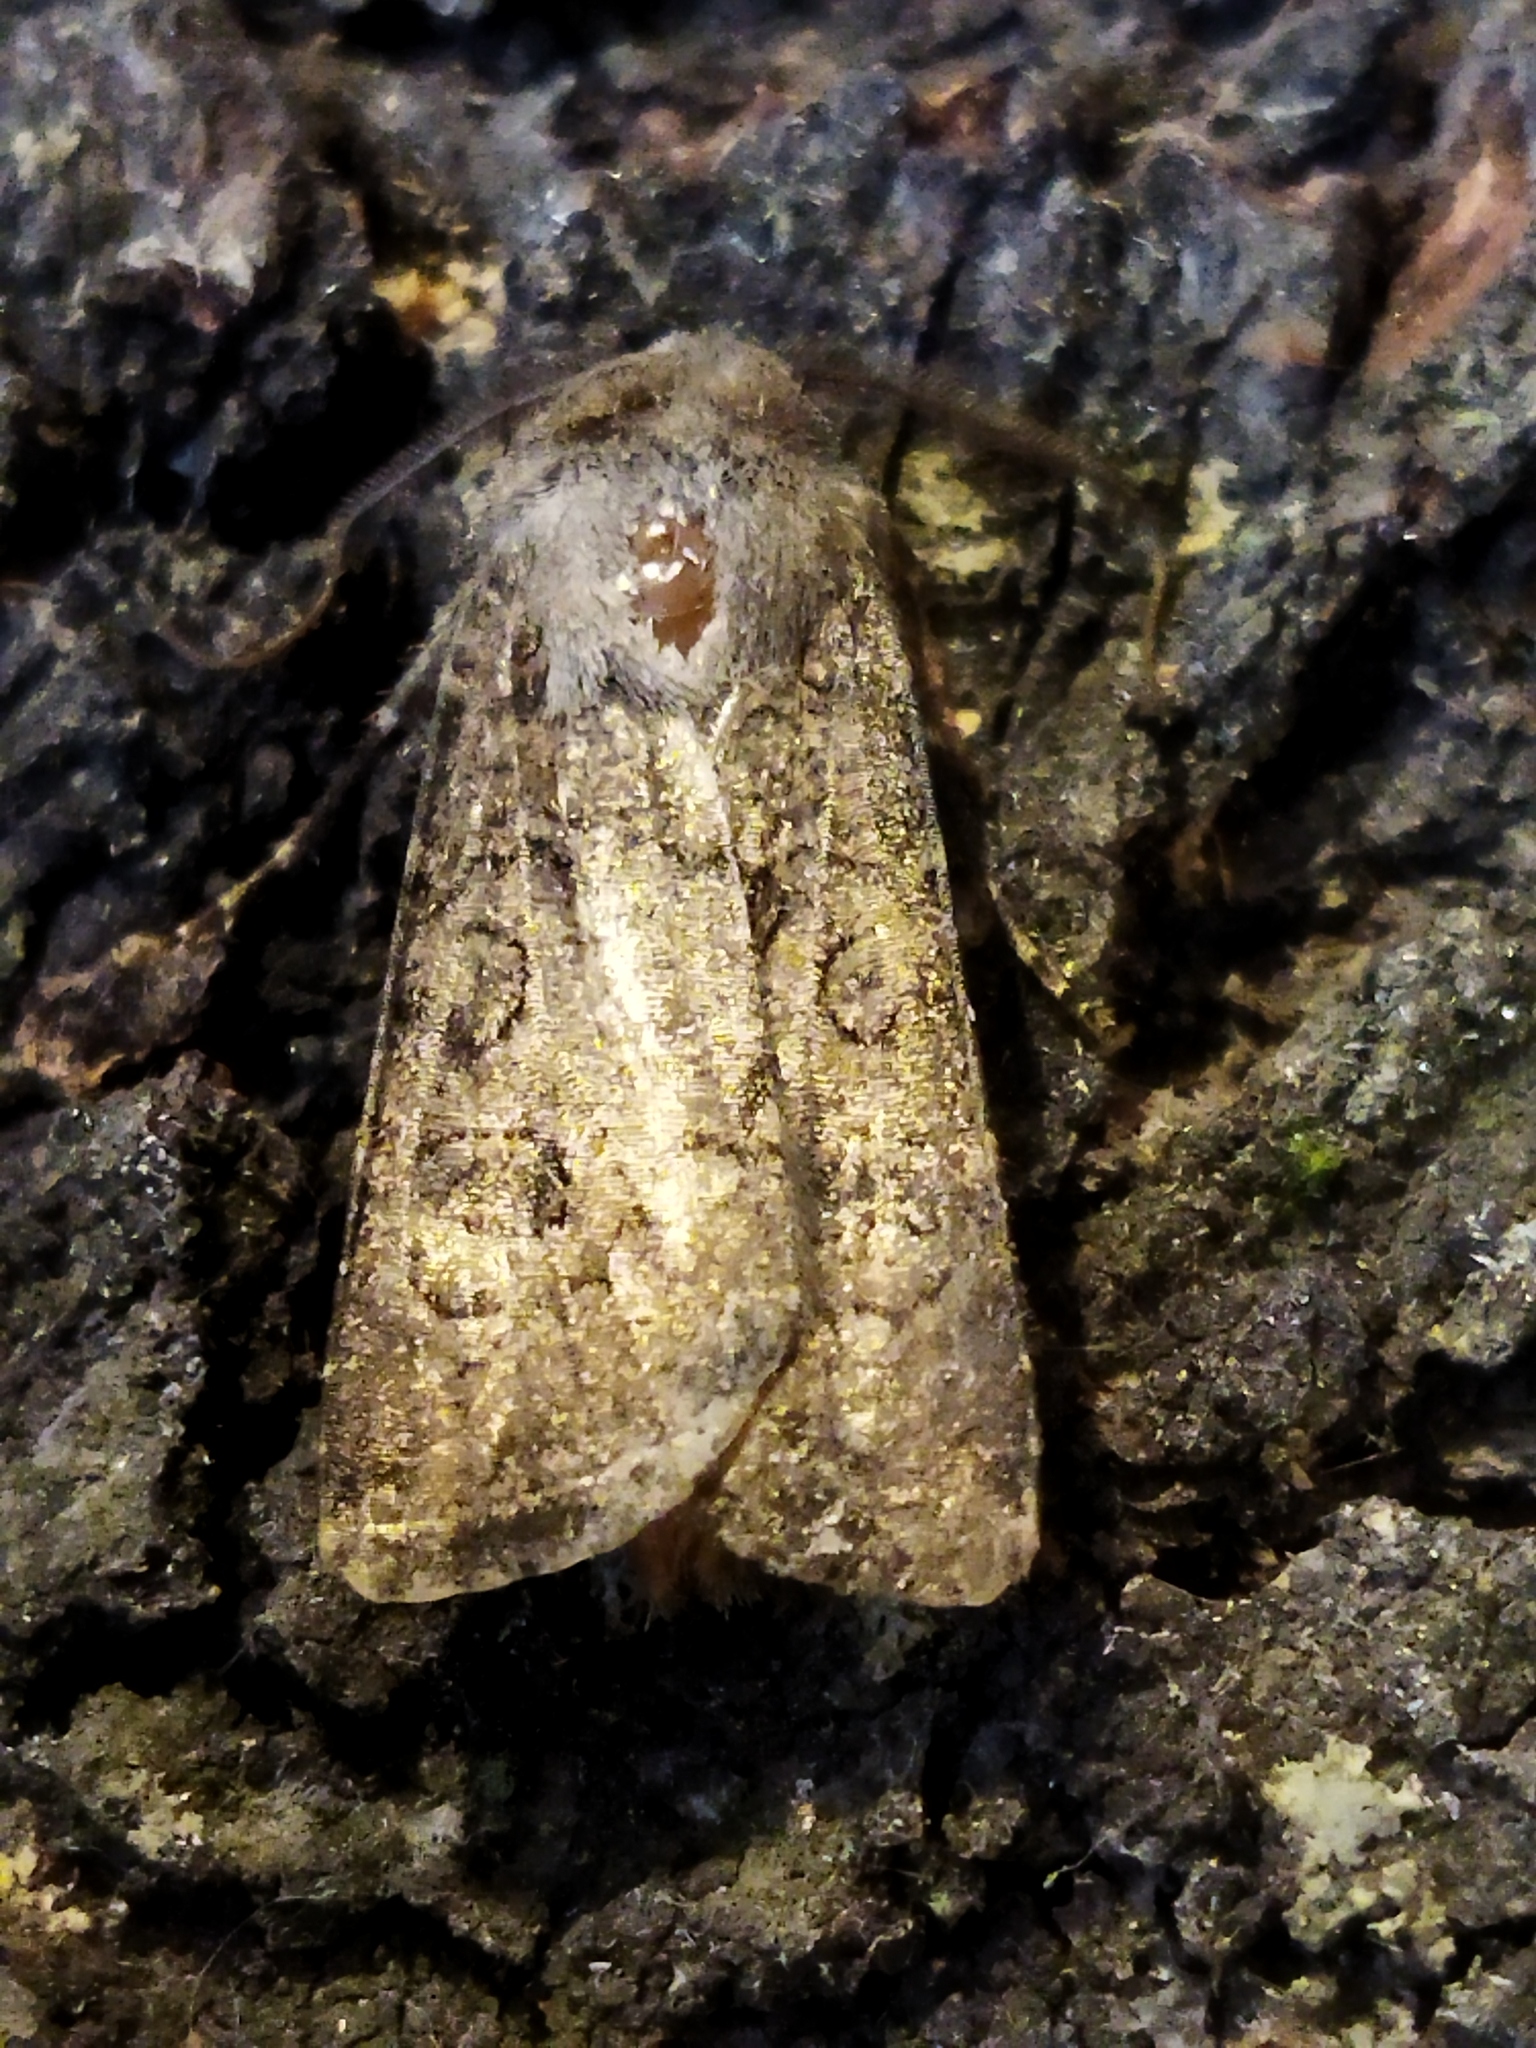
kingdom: Animalia
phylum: Arthropoda
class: Insecta
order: Lepidoptera
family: Noctuidae
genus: Agrotis
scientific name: Agrotis segetum
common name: Turnip moth
